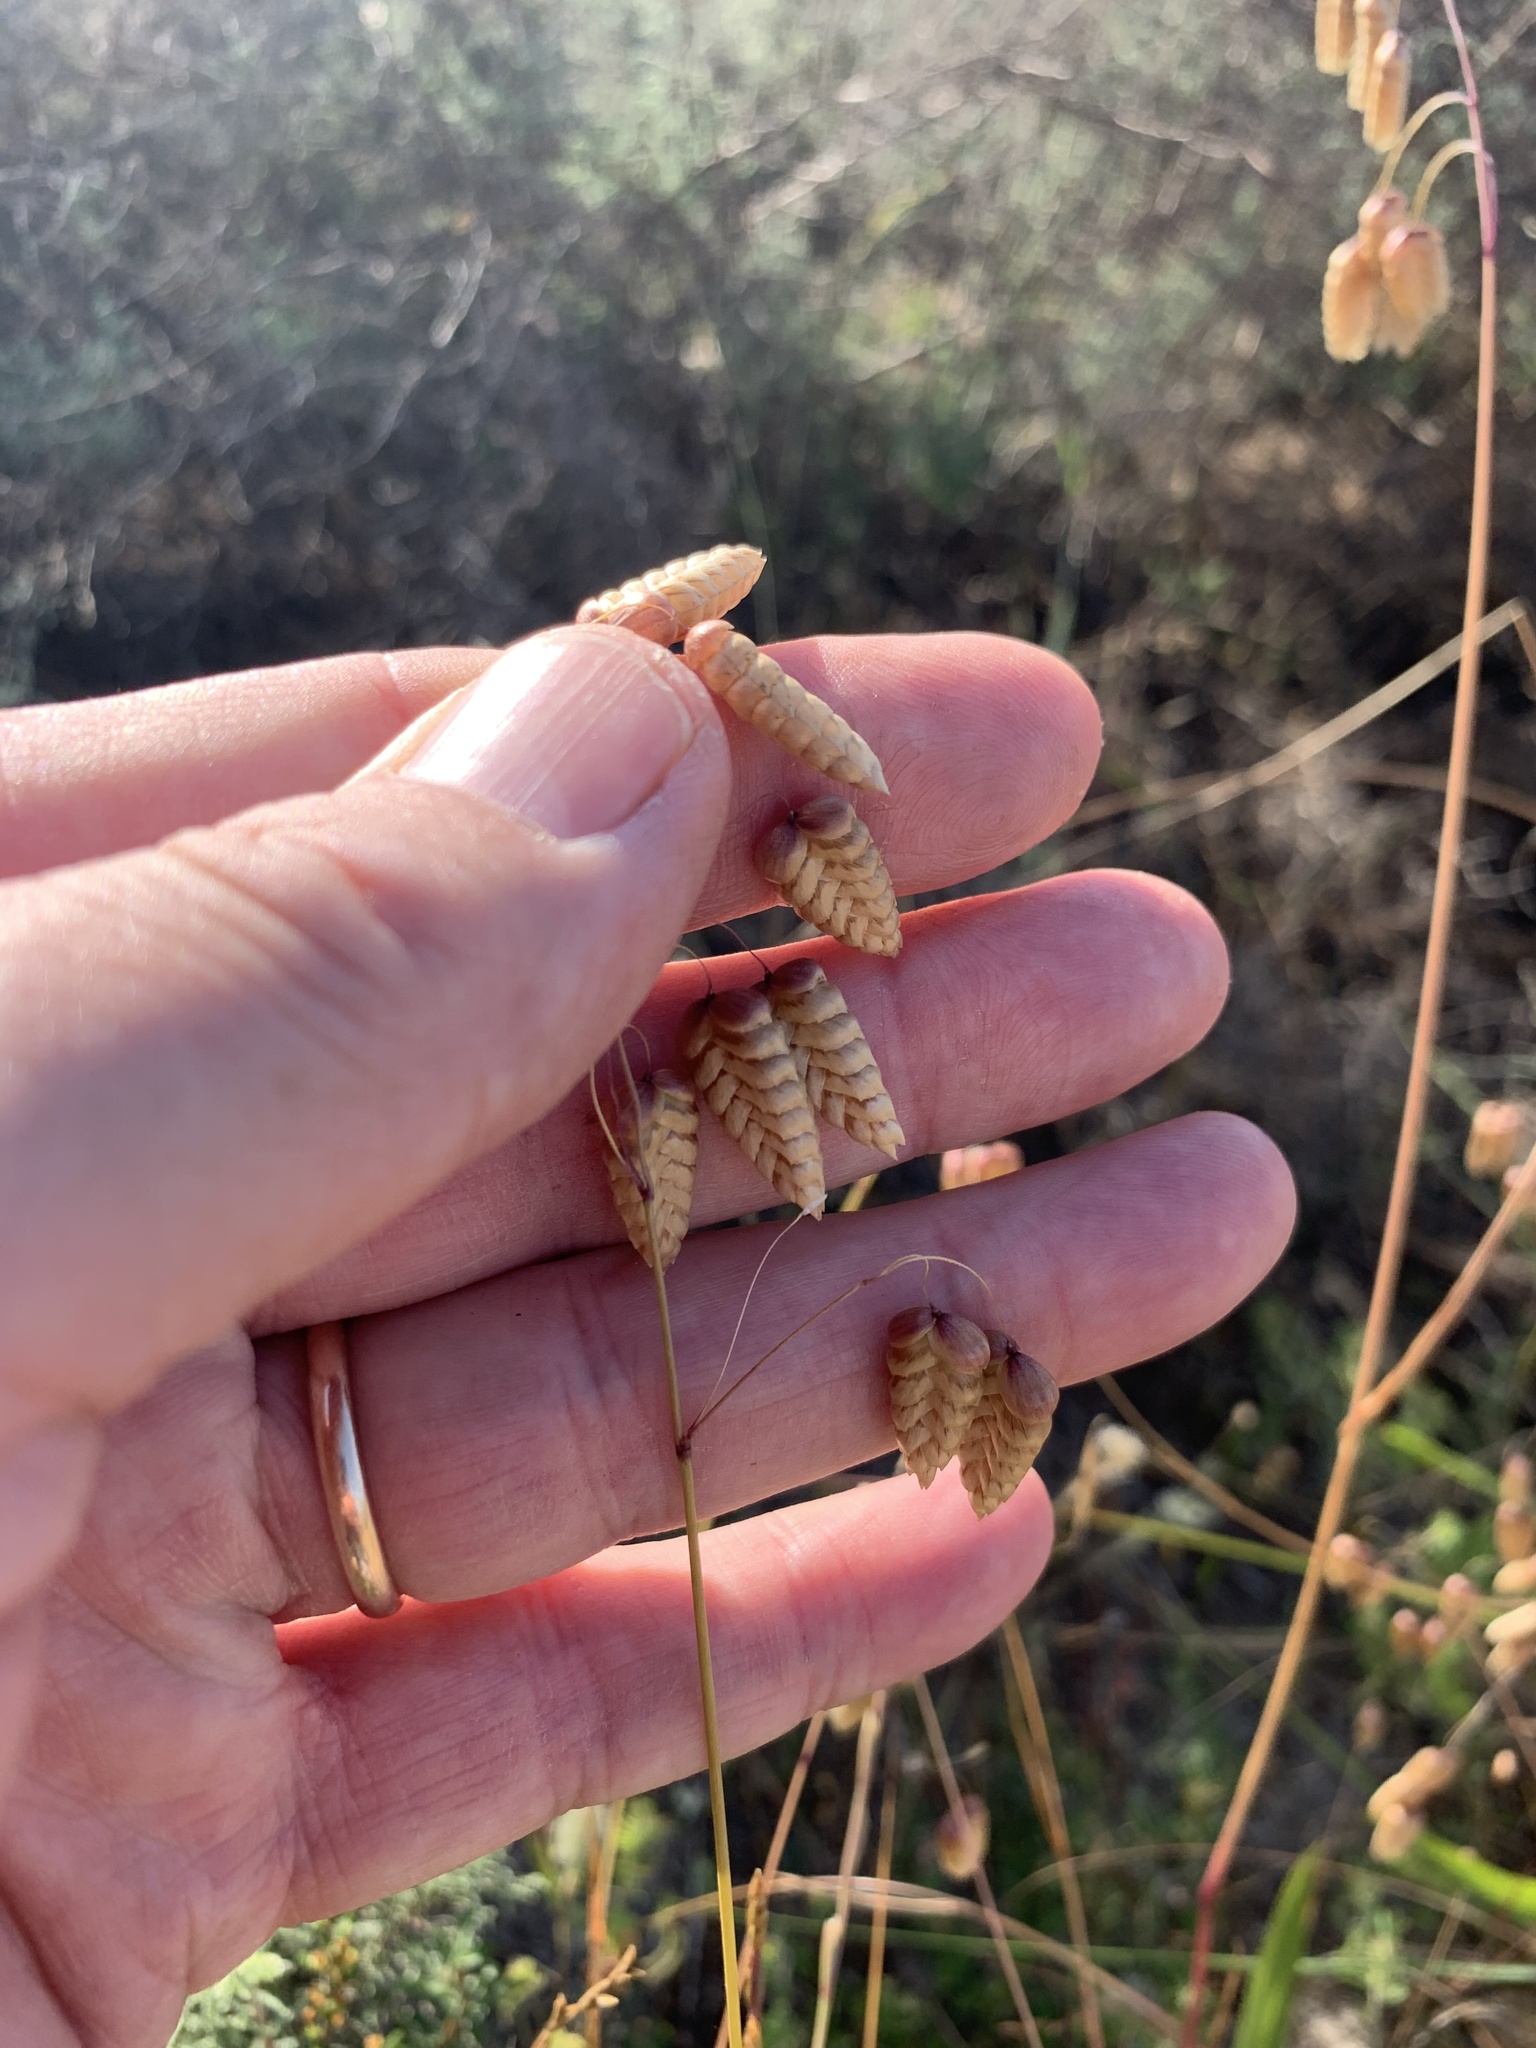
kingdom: Plantae
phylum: Tracheophyta
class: Liliopsida
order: Poales
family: Poaceae
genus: Briza
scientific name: Briza maxima
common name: Big quakinggrass
